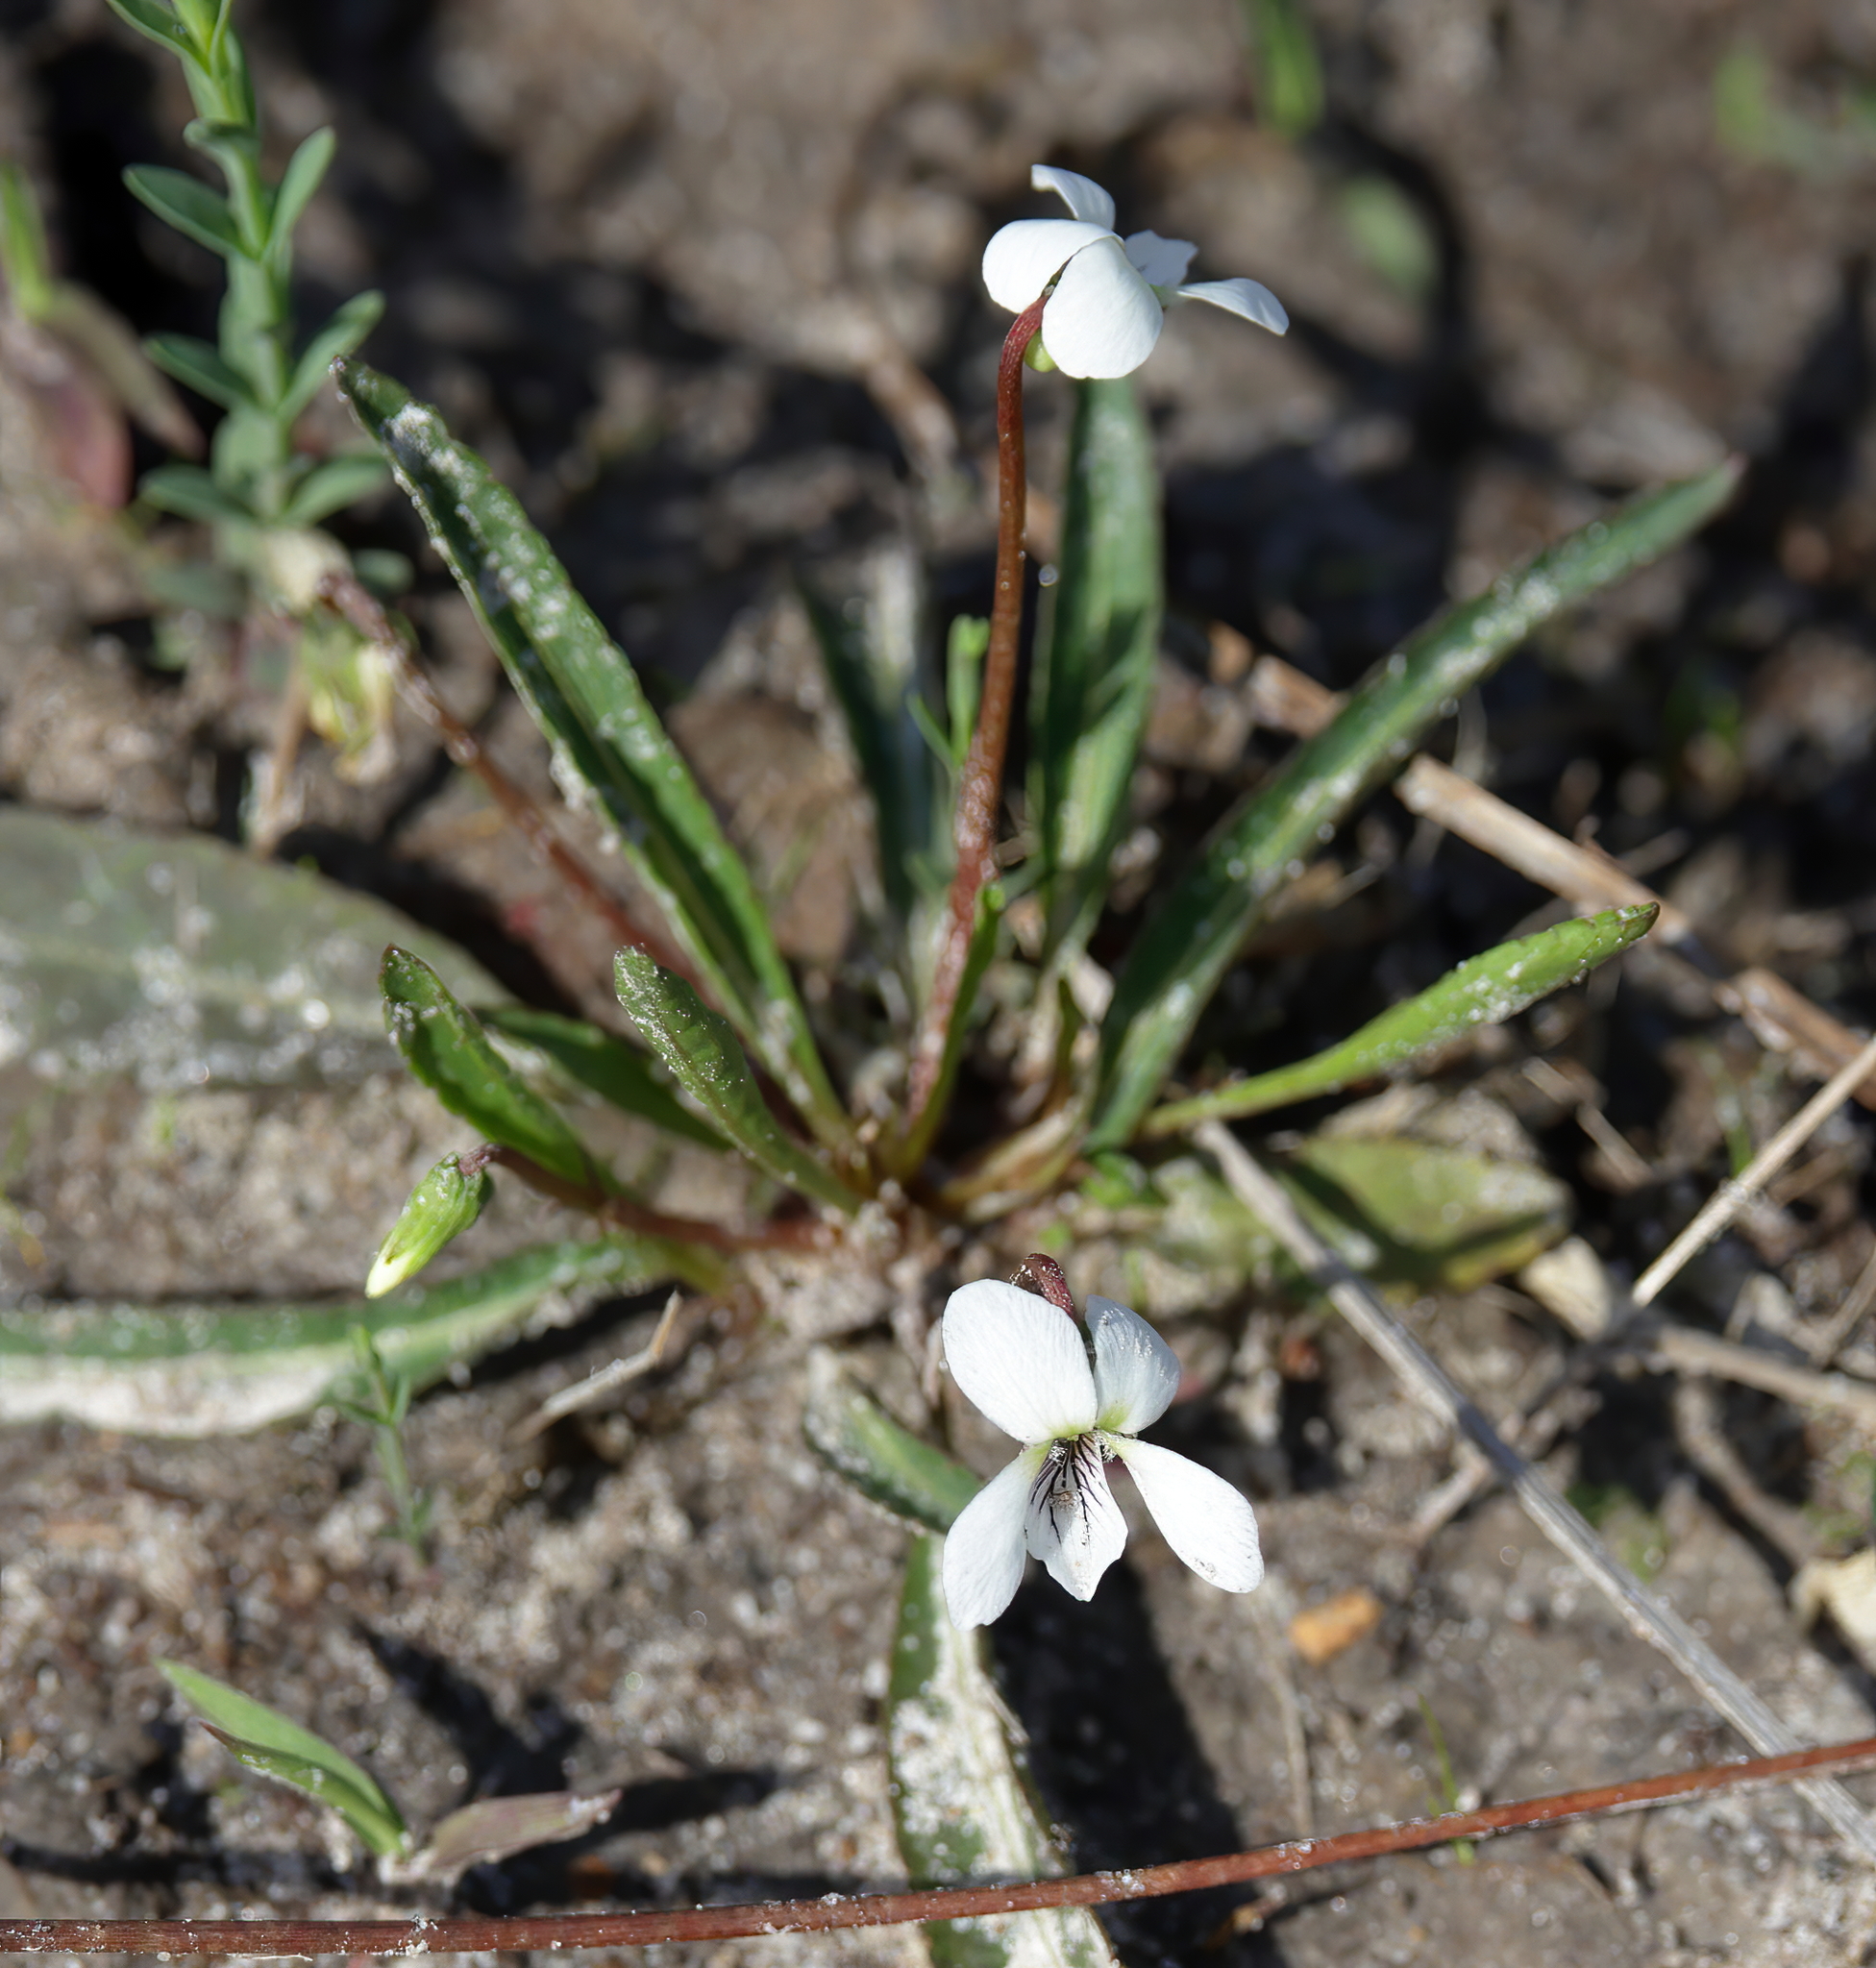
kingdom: Plantae
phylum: Tracheophyta
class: Magnoliopsida
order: Malpighiales
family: Violaceae
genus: Viola
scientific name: Viola lanceolata
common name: Bog white violet
